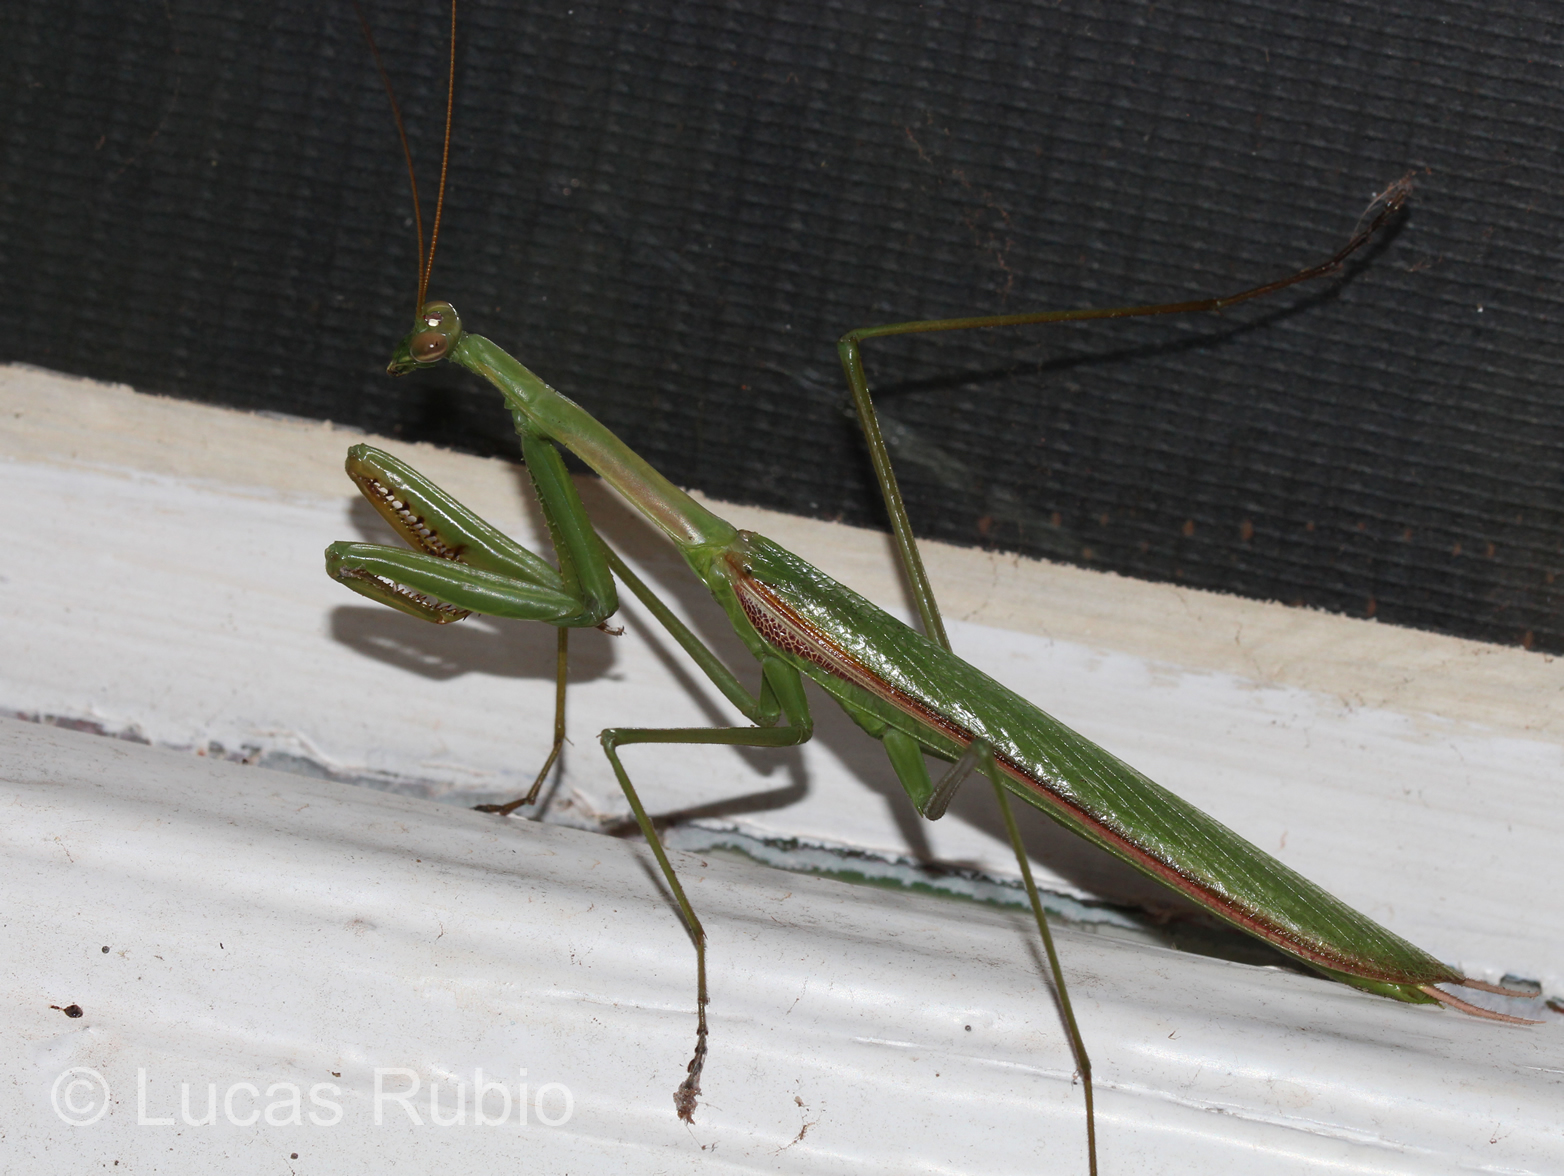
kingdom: Animalia
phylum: Arthropoda
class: Insecta
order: Mantodea
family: Coptopterygidae
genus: Coptopteryx
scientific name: Coptopteryx argentina
